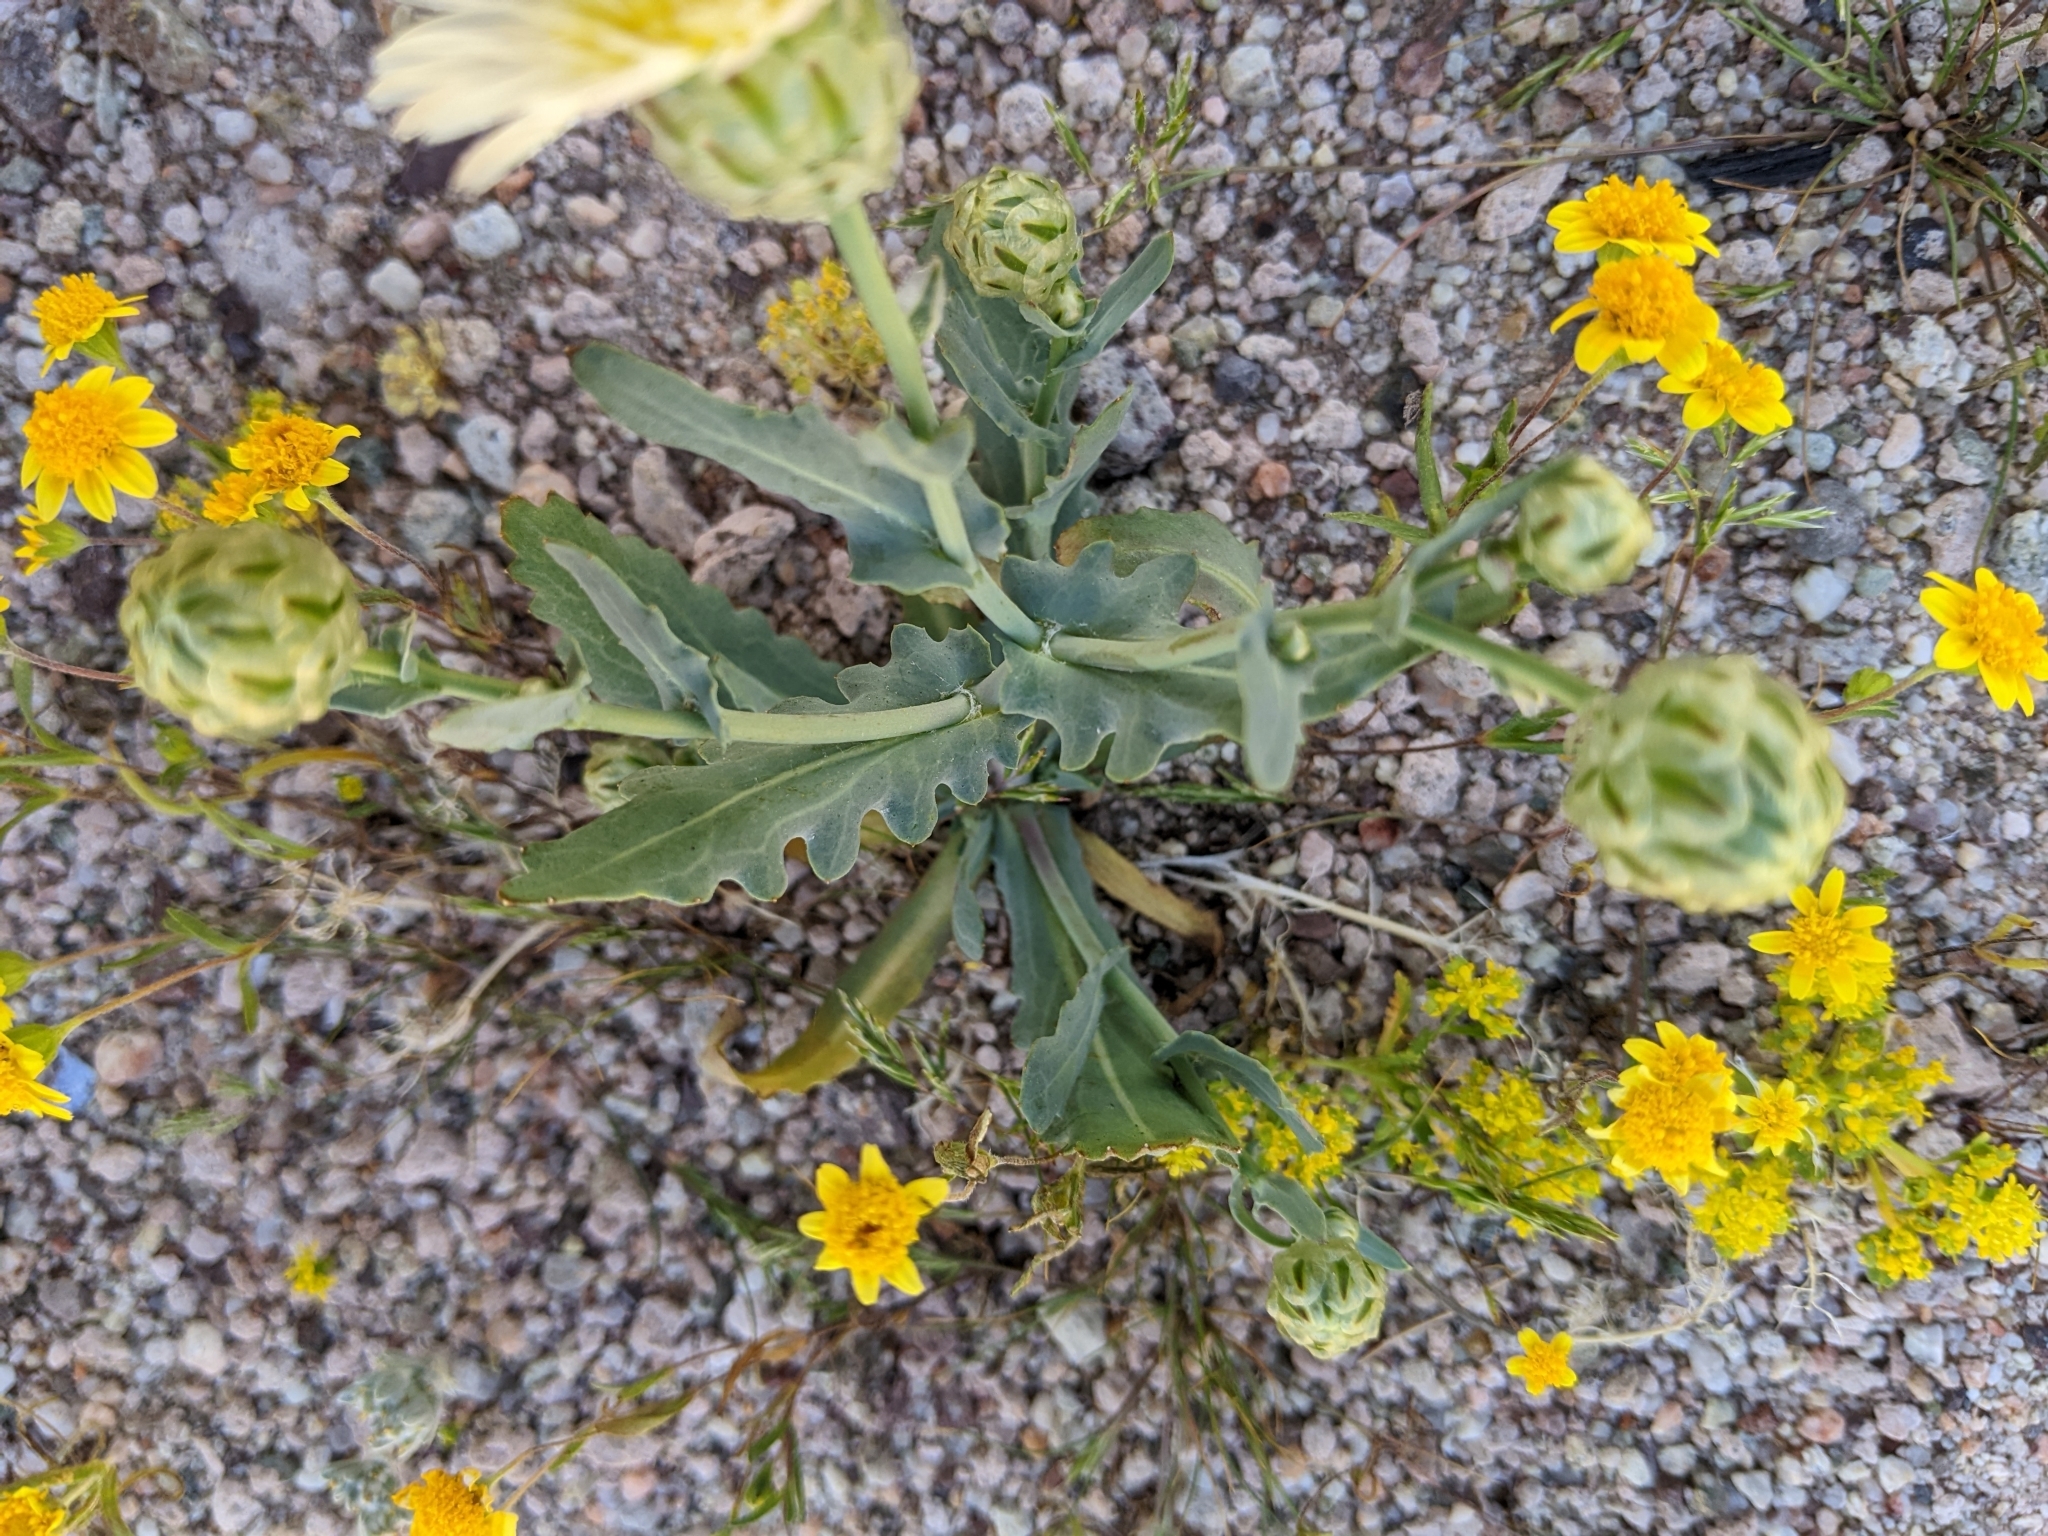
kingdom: Plantae
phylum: Tracheophyta
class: Magnoliopsida
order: Asterales
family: Asteraceae
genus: Malacothrix
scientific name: Malacothrix coulteri
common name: Snake's-head
